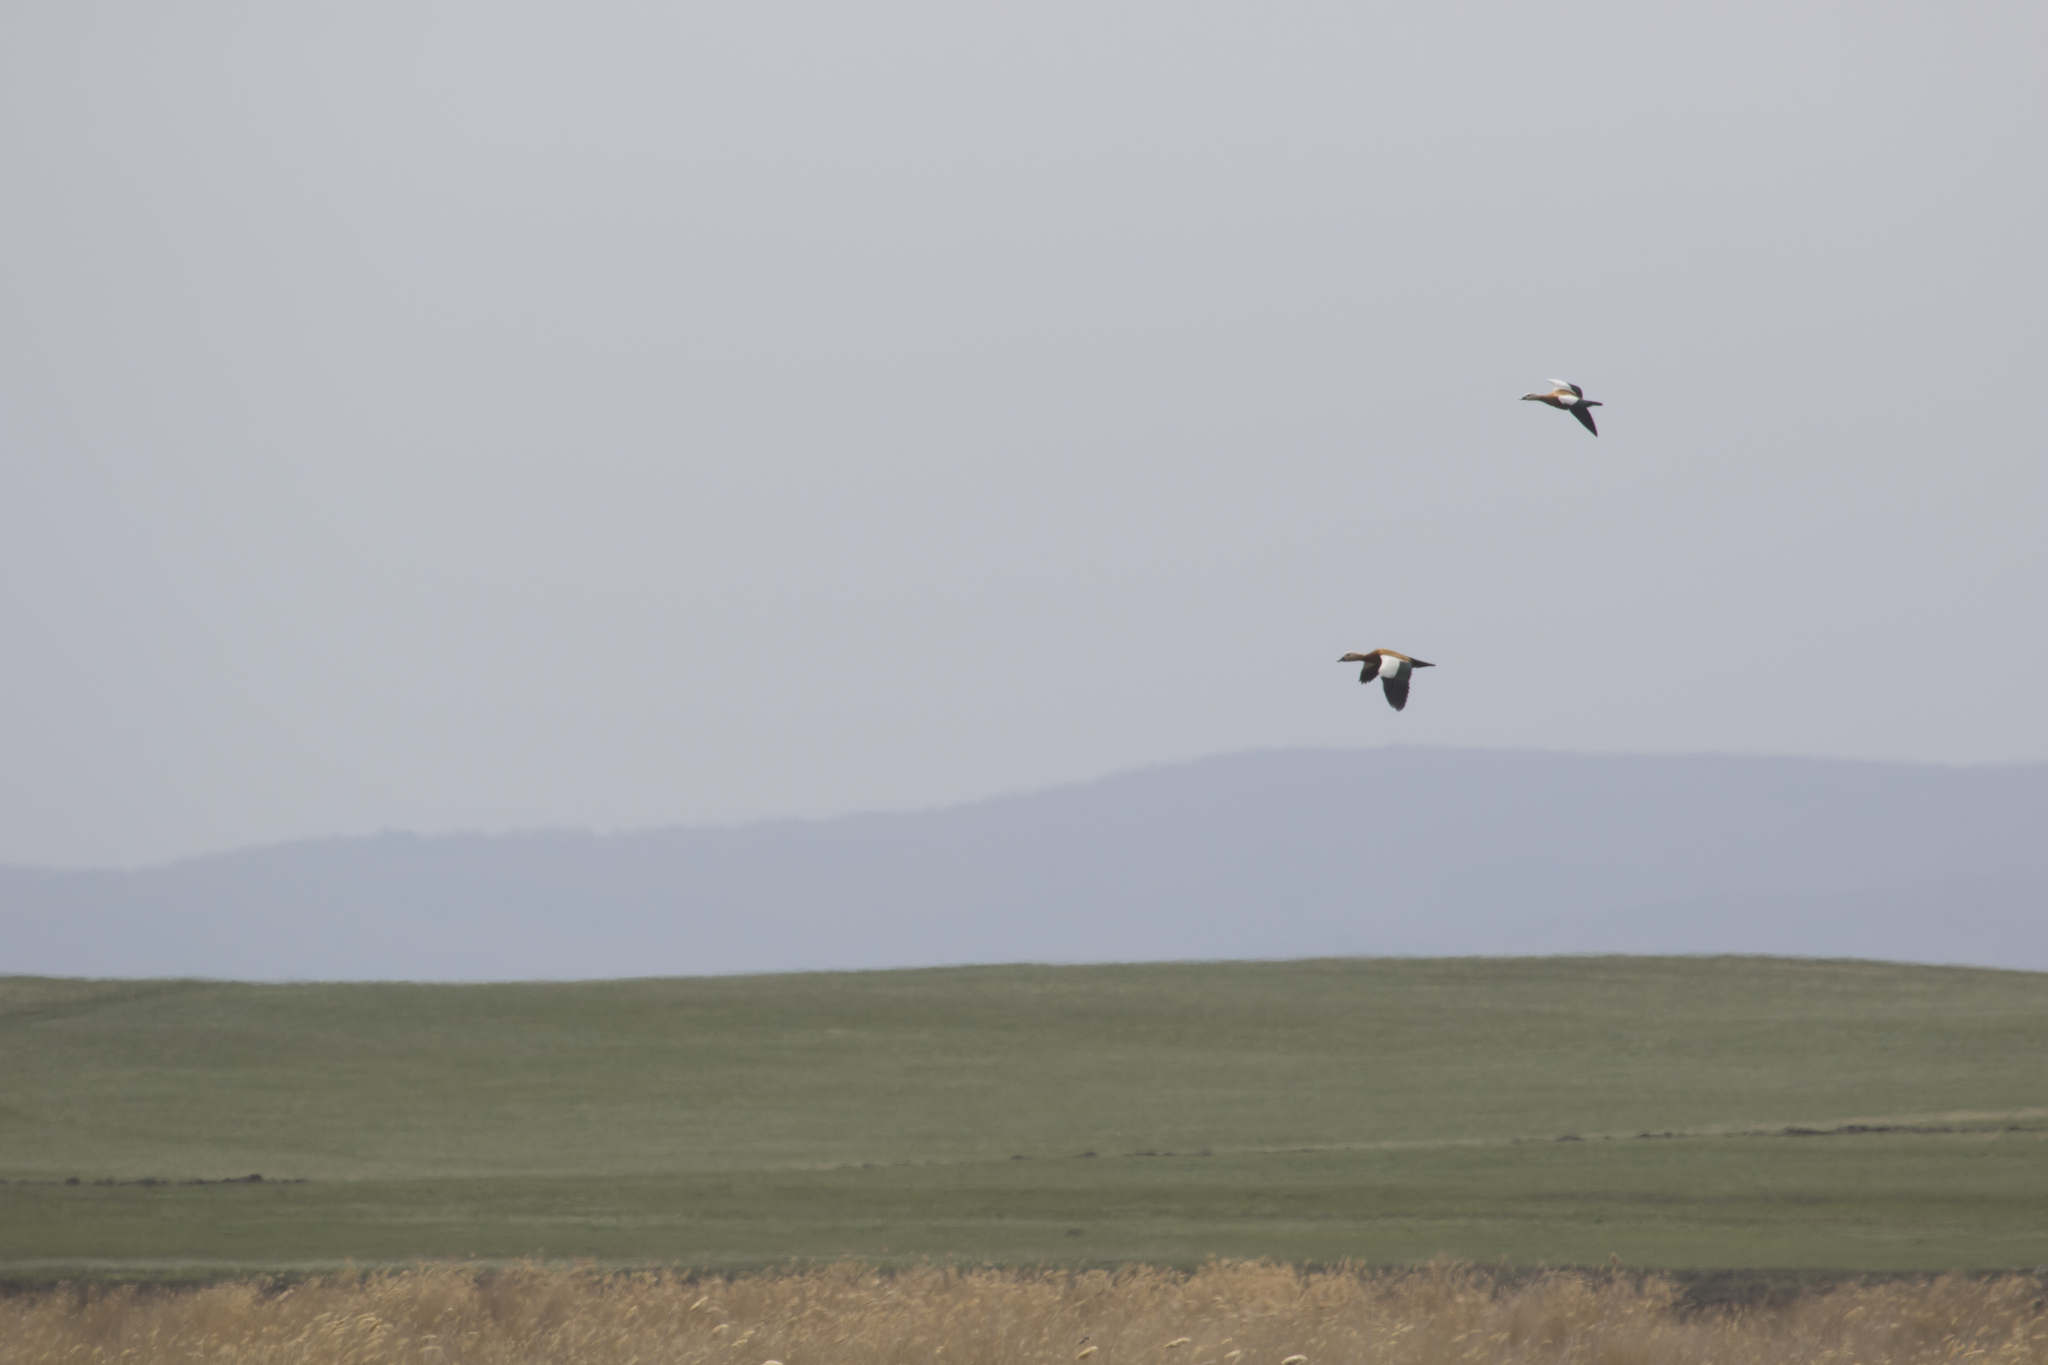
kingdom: Animalia
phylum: Chordata
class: Aves
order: Anseriformes
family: Anatidae
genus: Tadorna
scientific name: Tadorna ferruginea
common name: Ruddy shelduck
